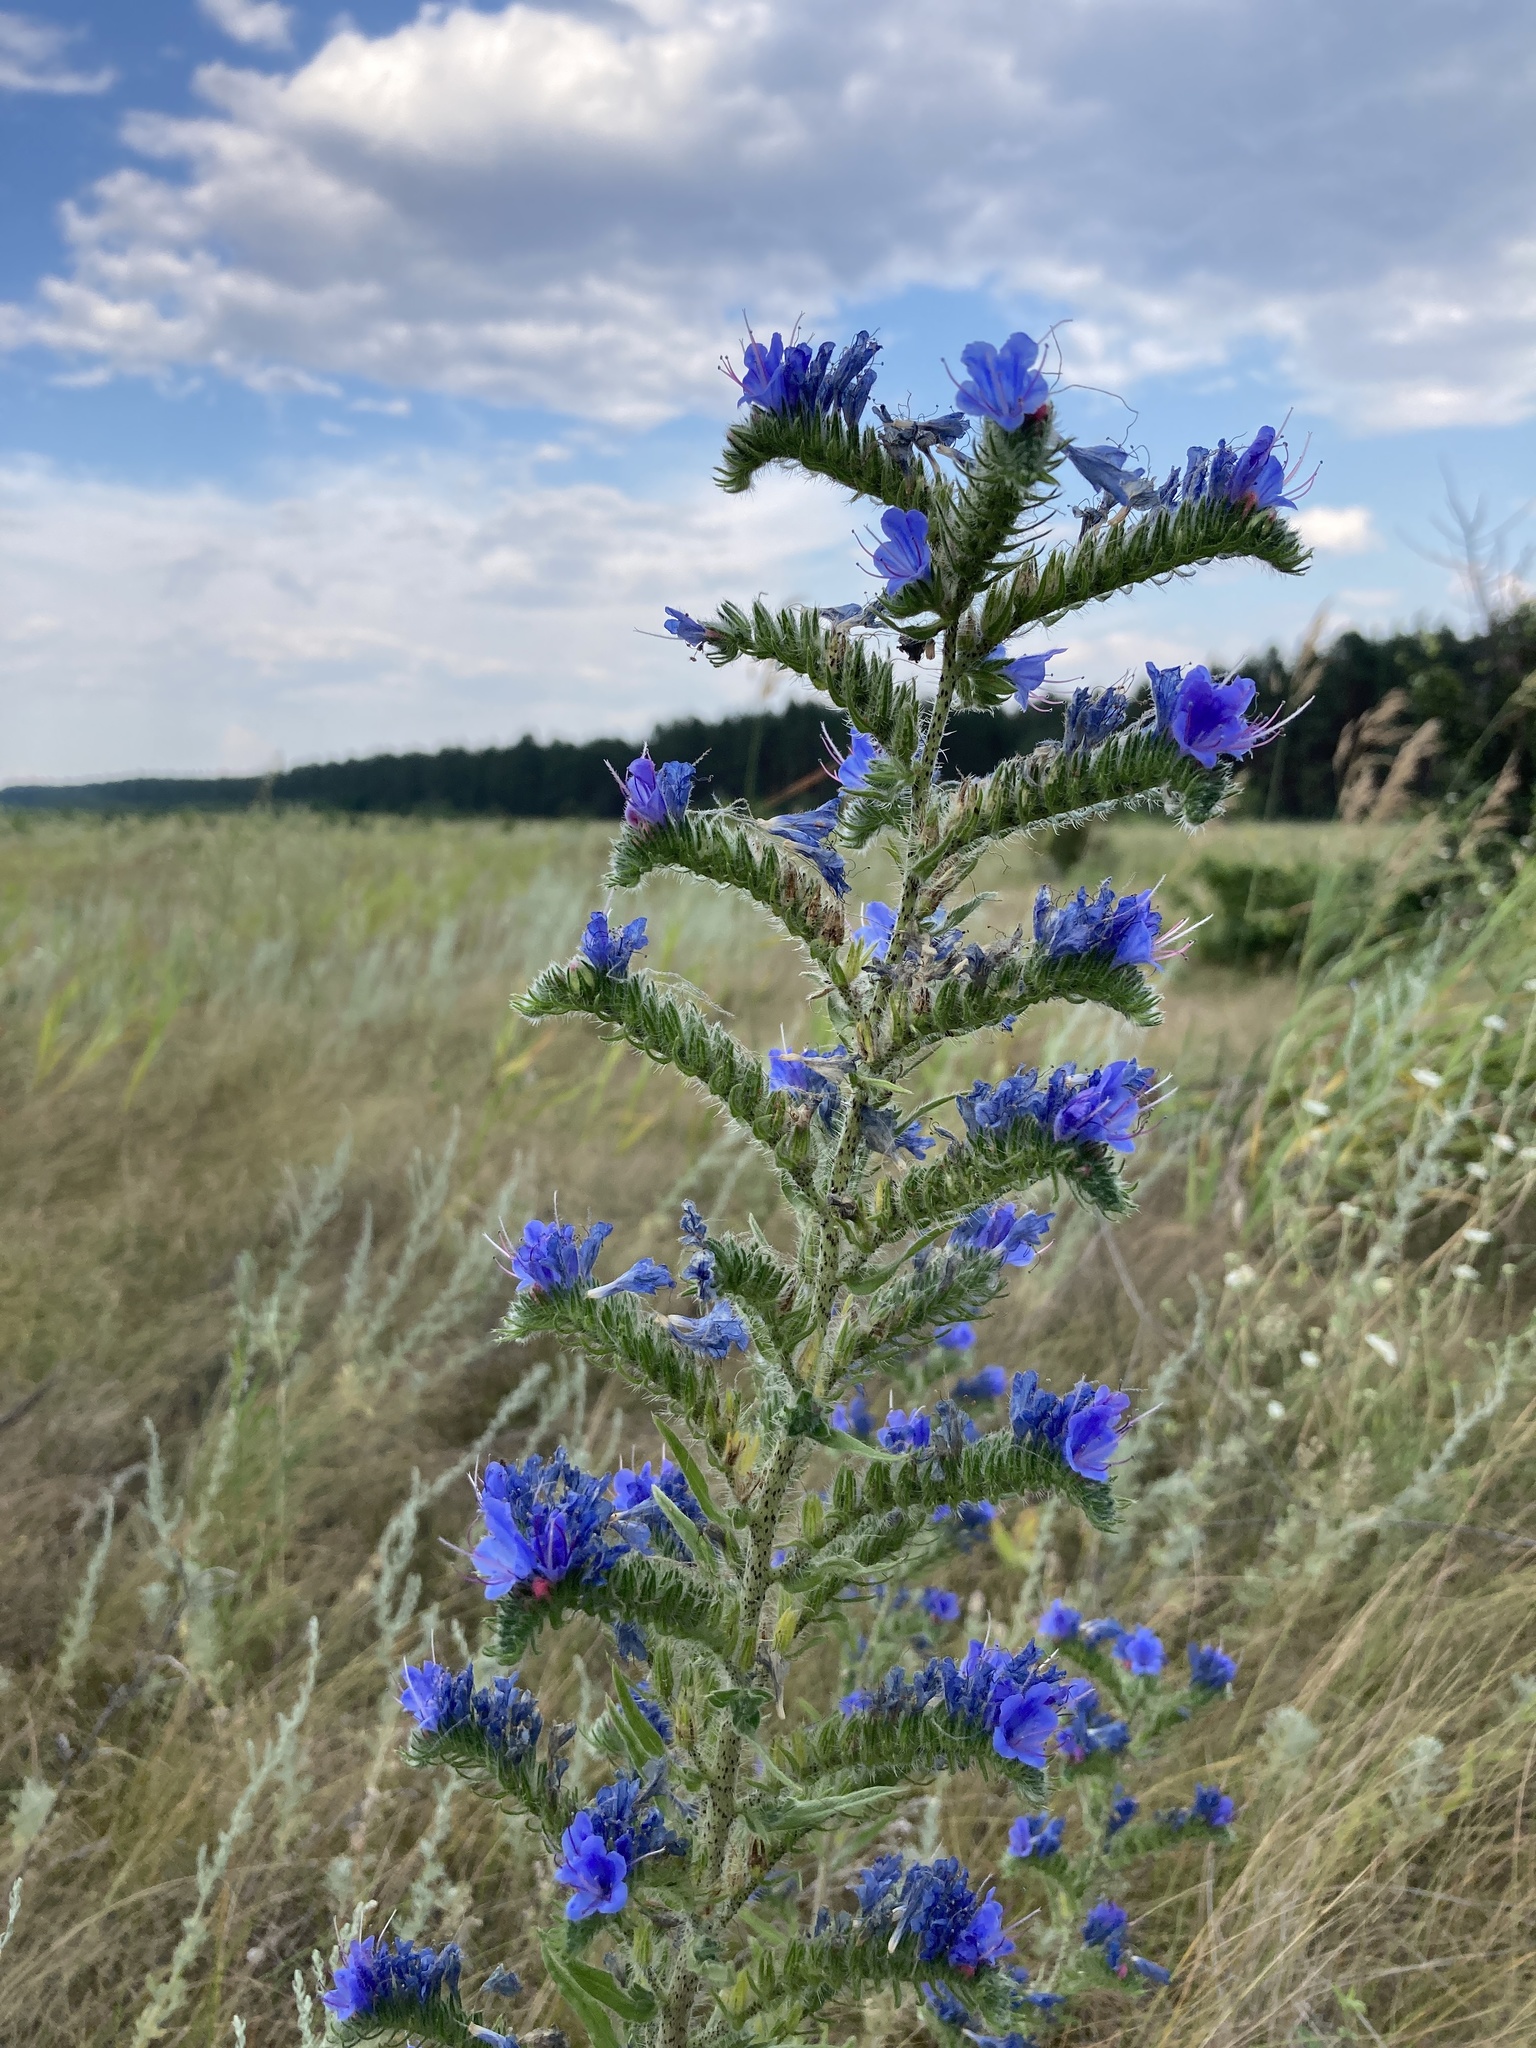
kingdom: Plantae
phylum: Tracheophyta
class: Magnoliopsida
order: Boraginales
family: Boraginaceae
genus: Echium
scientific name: Echium vulgare
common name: Common viper's bugloss
